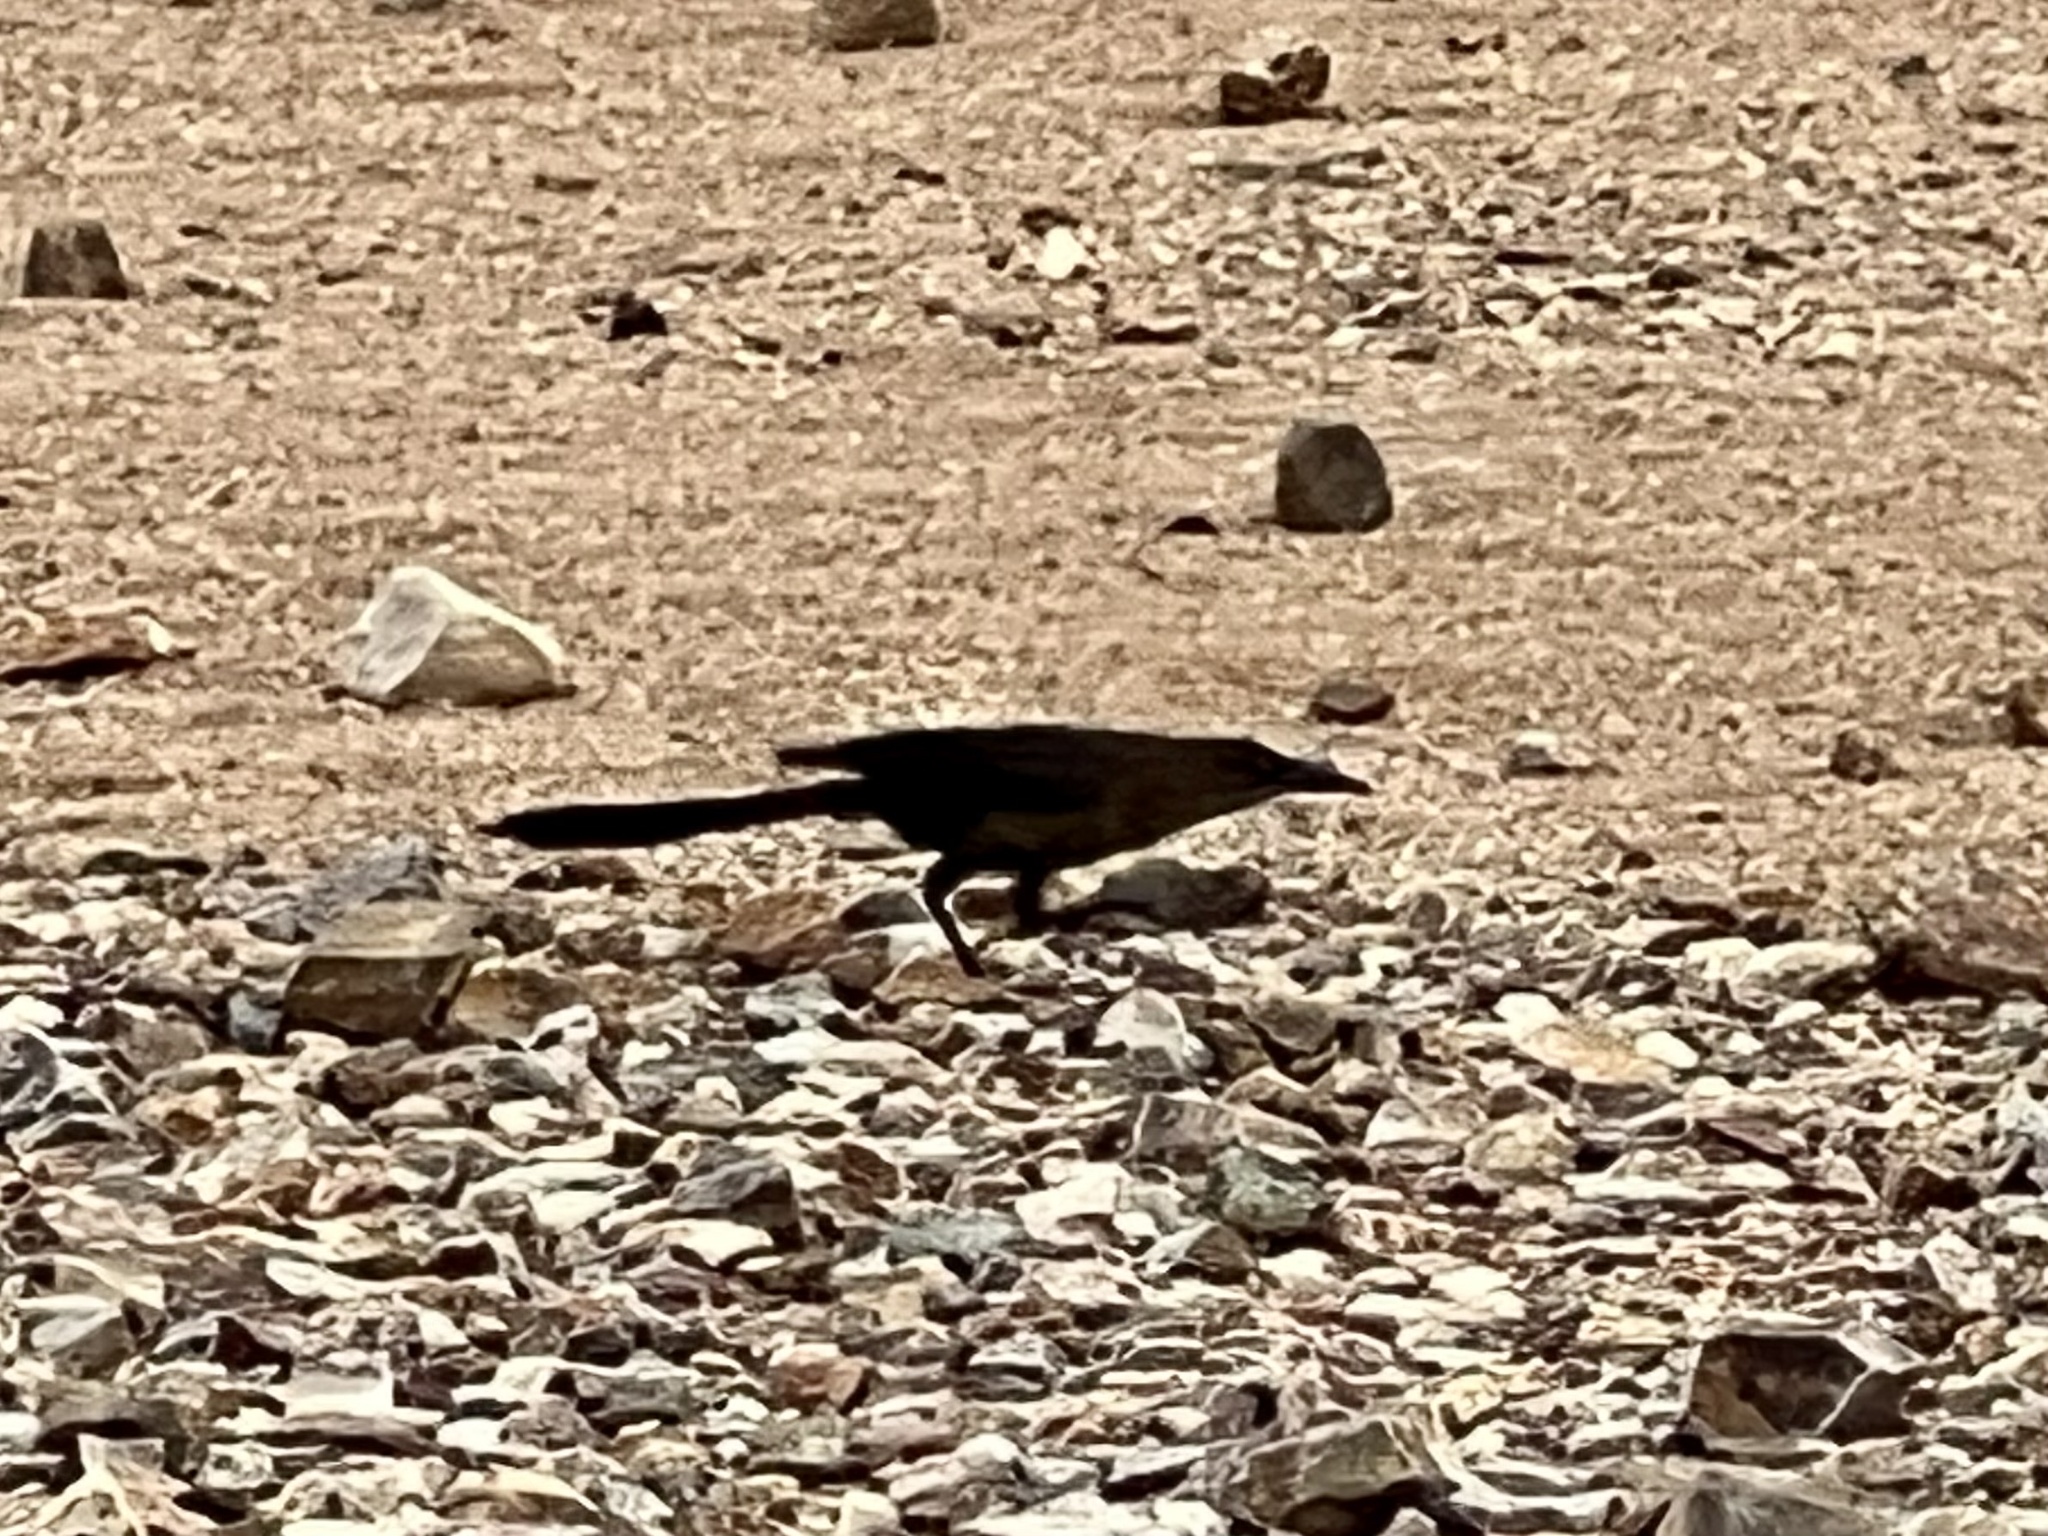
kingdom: Animalia
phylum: Chordata
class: Aves
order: Passeriformes
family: Icteridae
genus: Quiscalus
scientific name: Quiscalus mexicanus
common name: Great-tailed grackle
